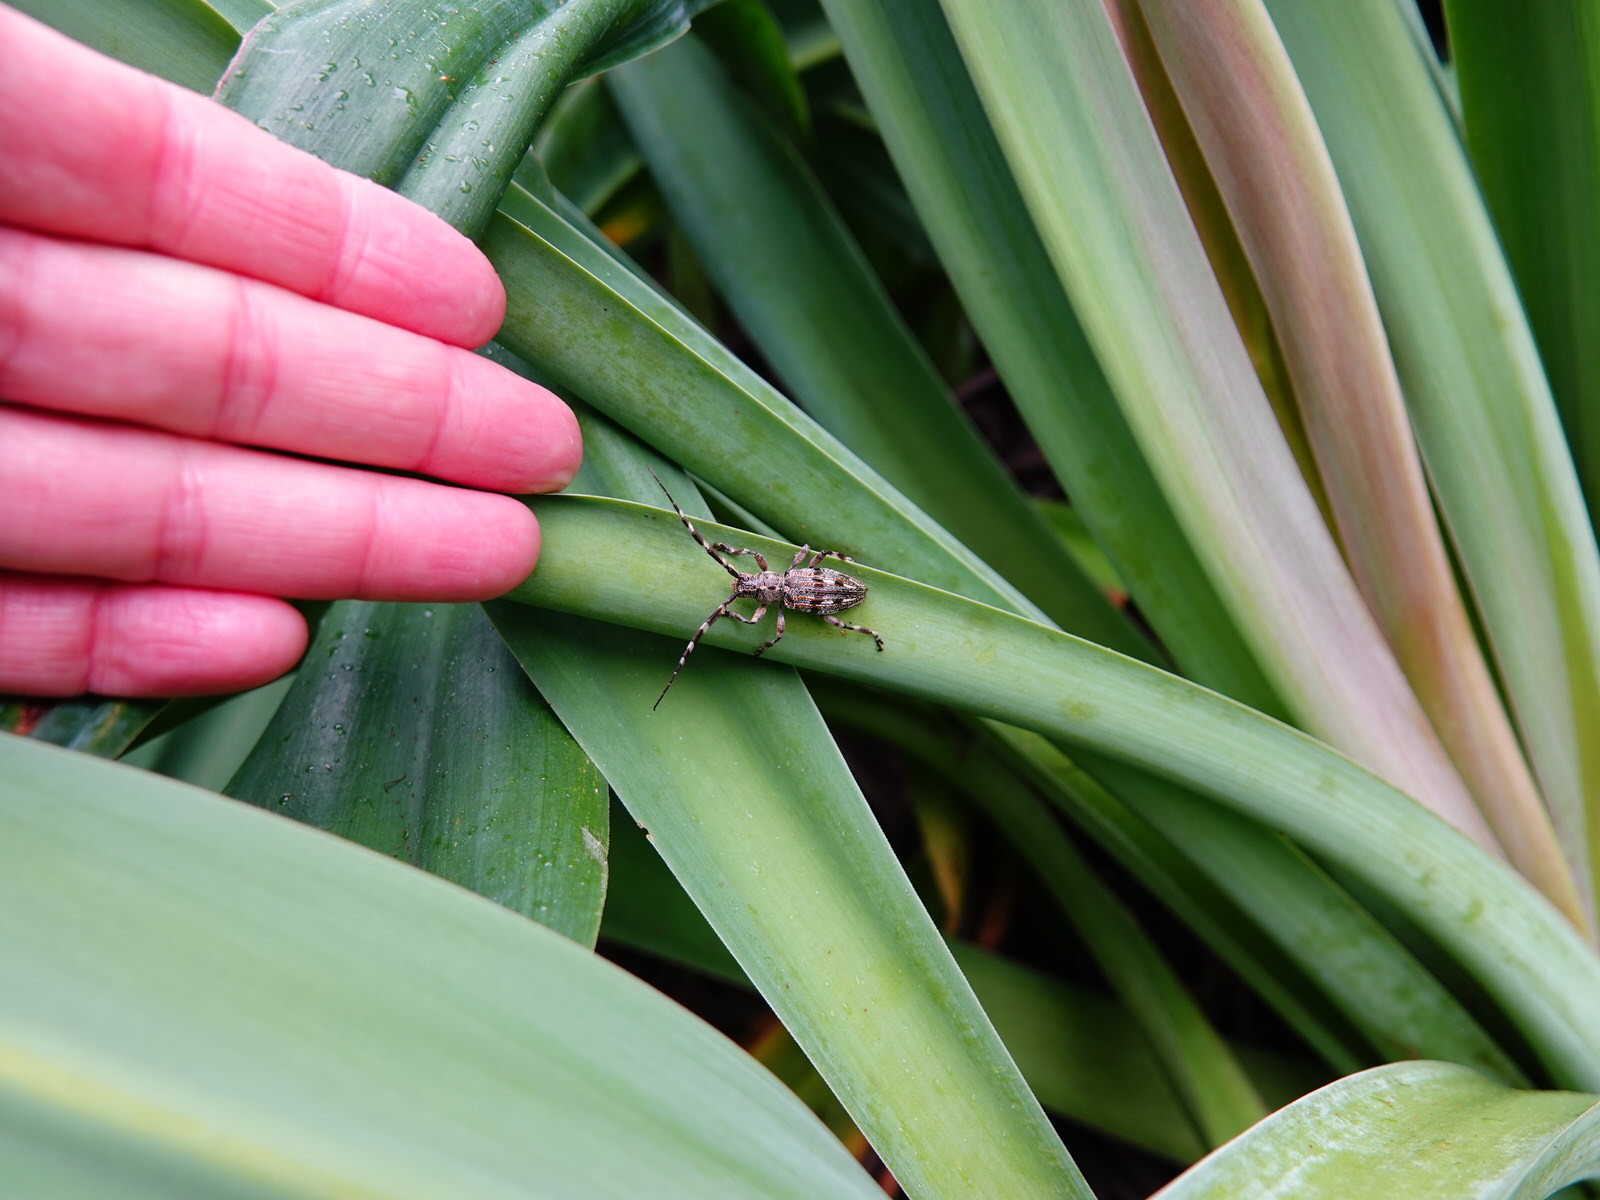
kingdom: Animalia
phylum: Arthropoda
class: Insecta
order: Coleoptera
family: Cerambycidae
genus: Hexatricha
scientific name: Hexatricha pulverulenta
